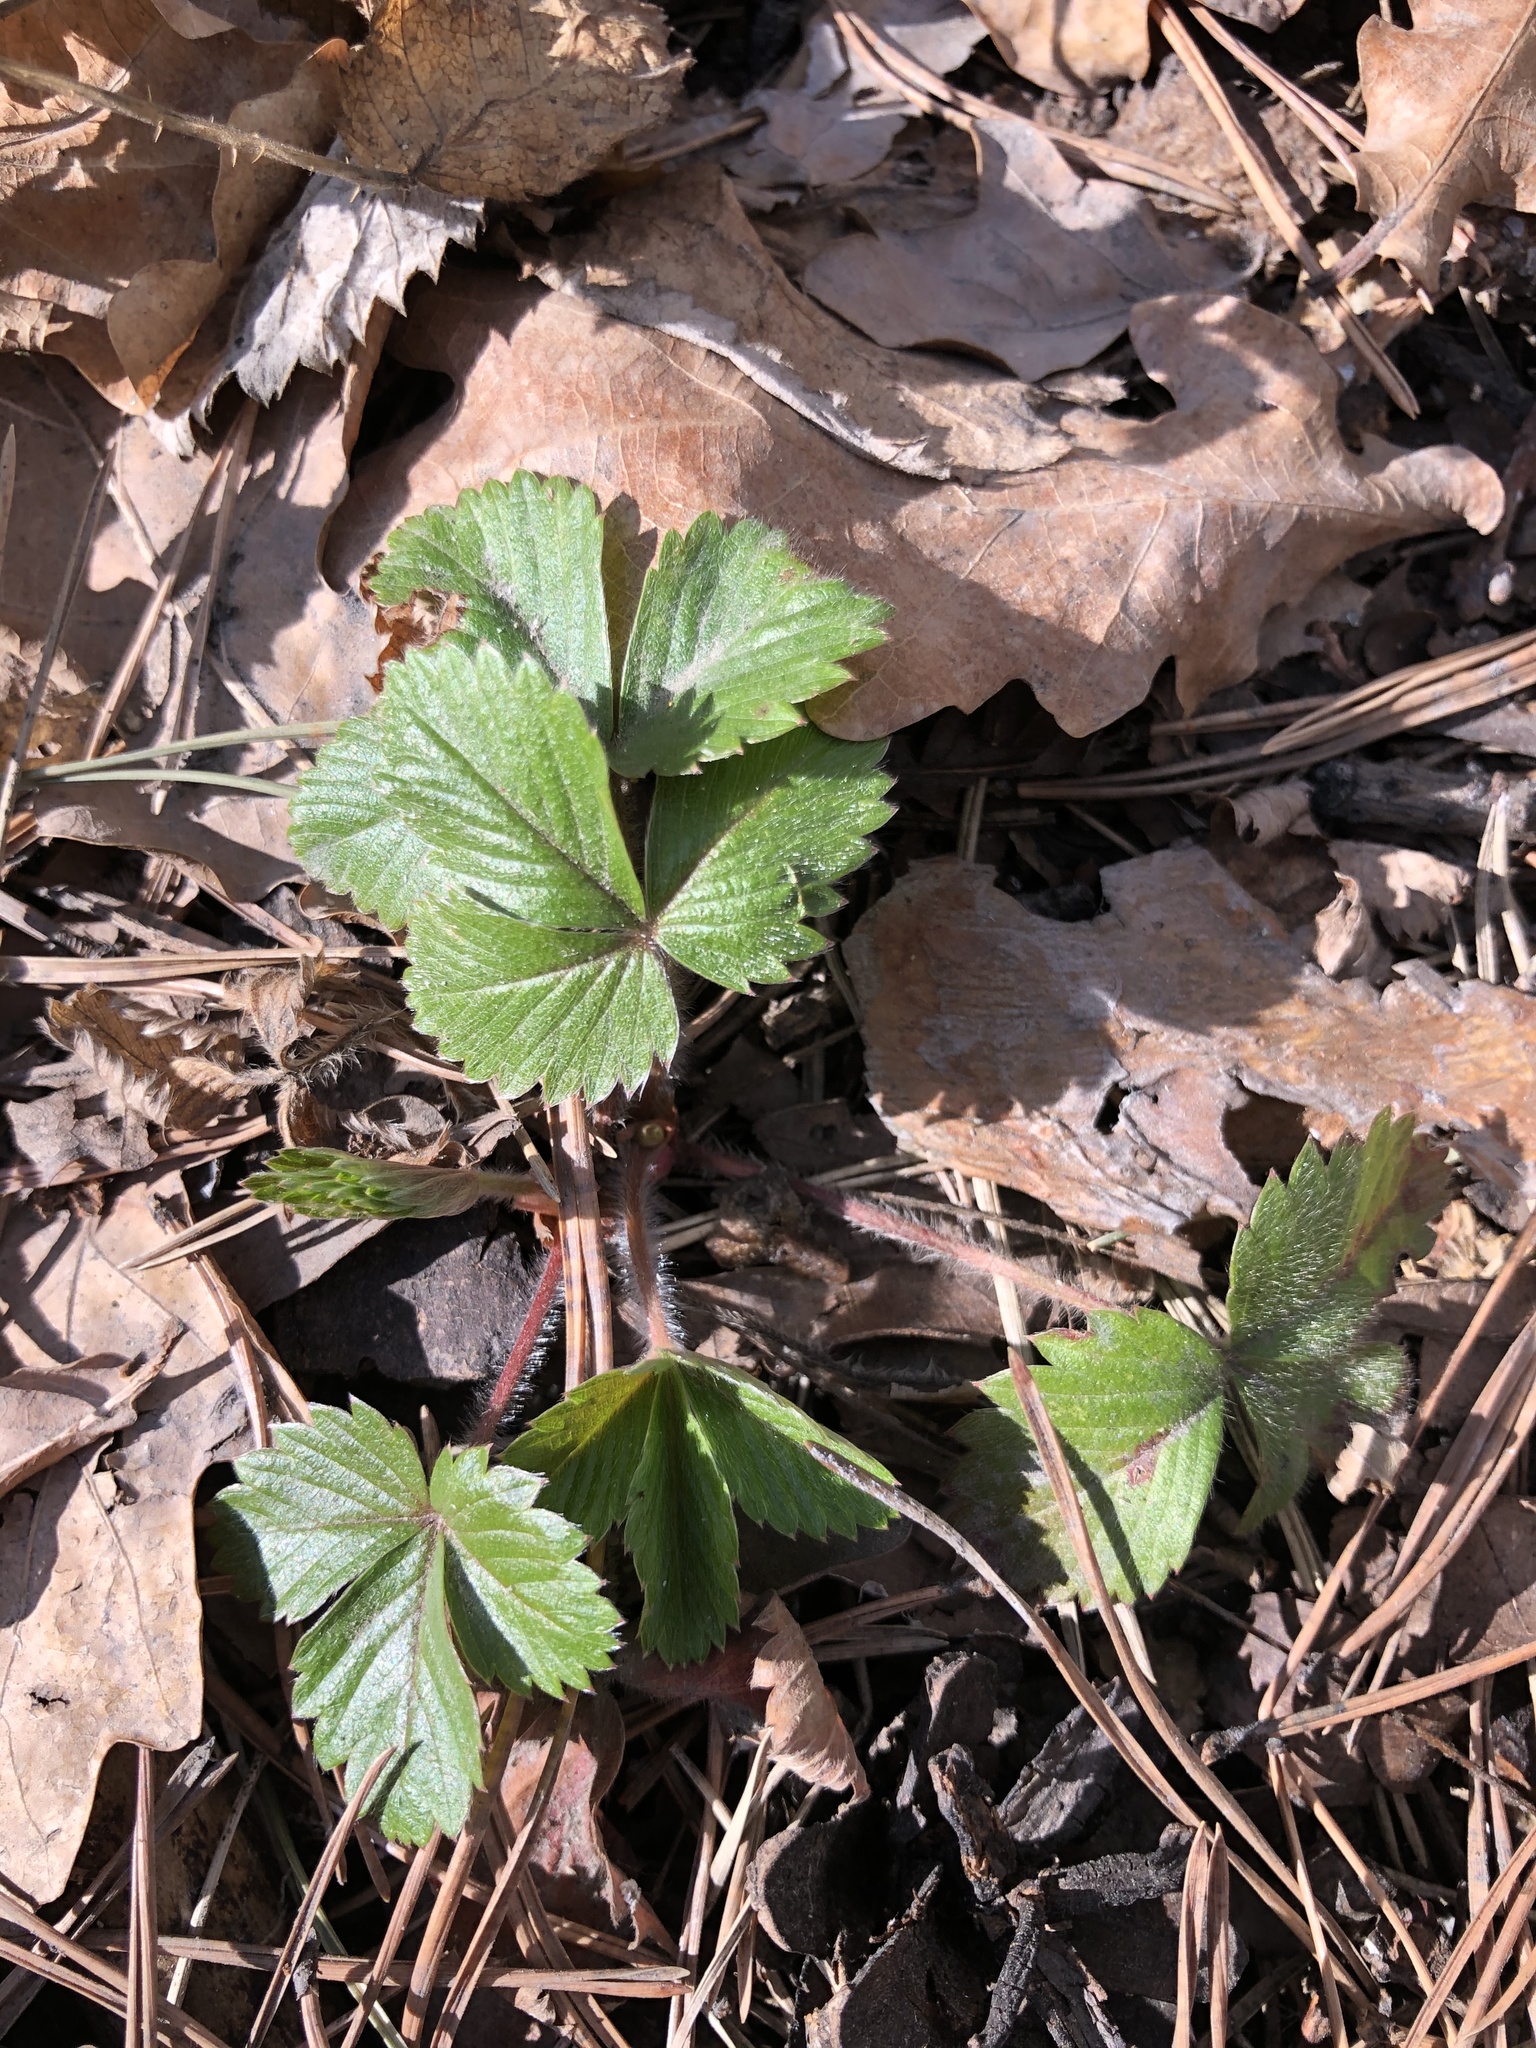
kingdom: Plantae
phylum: Tracheophyta
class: Magnoliopsida
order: Rosales
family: Rosaceae
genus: Fragaria
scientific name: Fragaria vesca
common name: Wild strawberry
